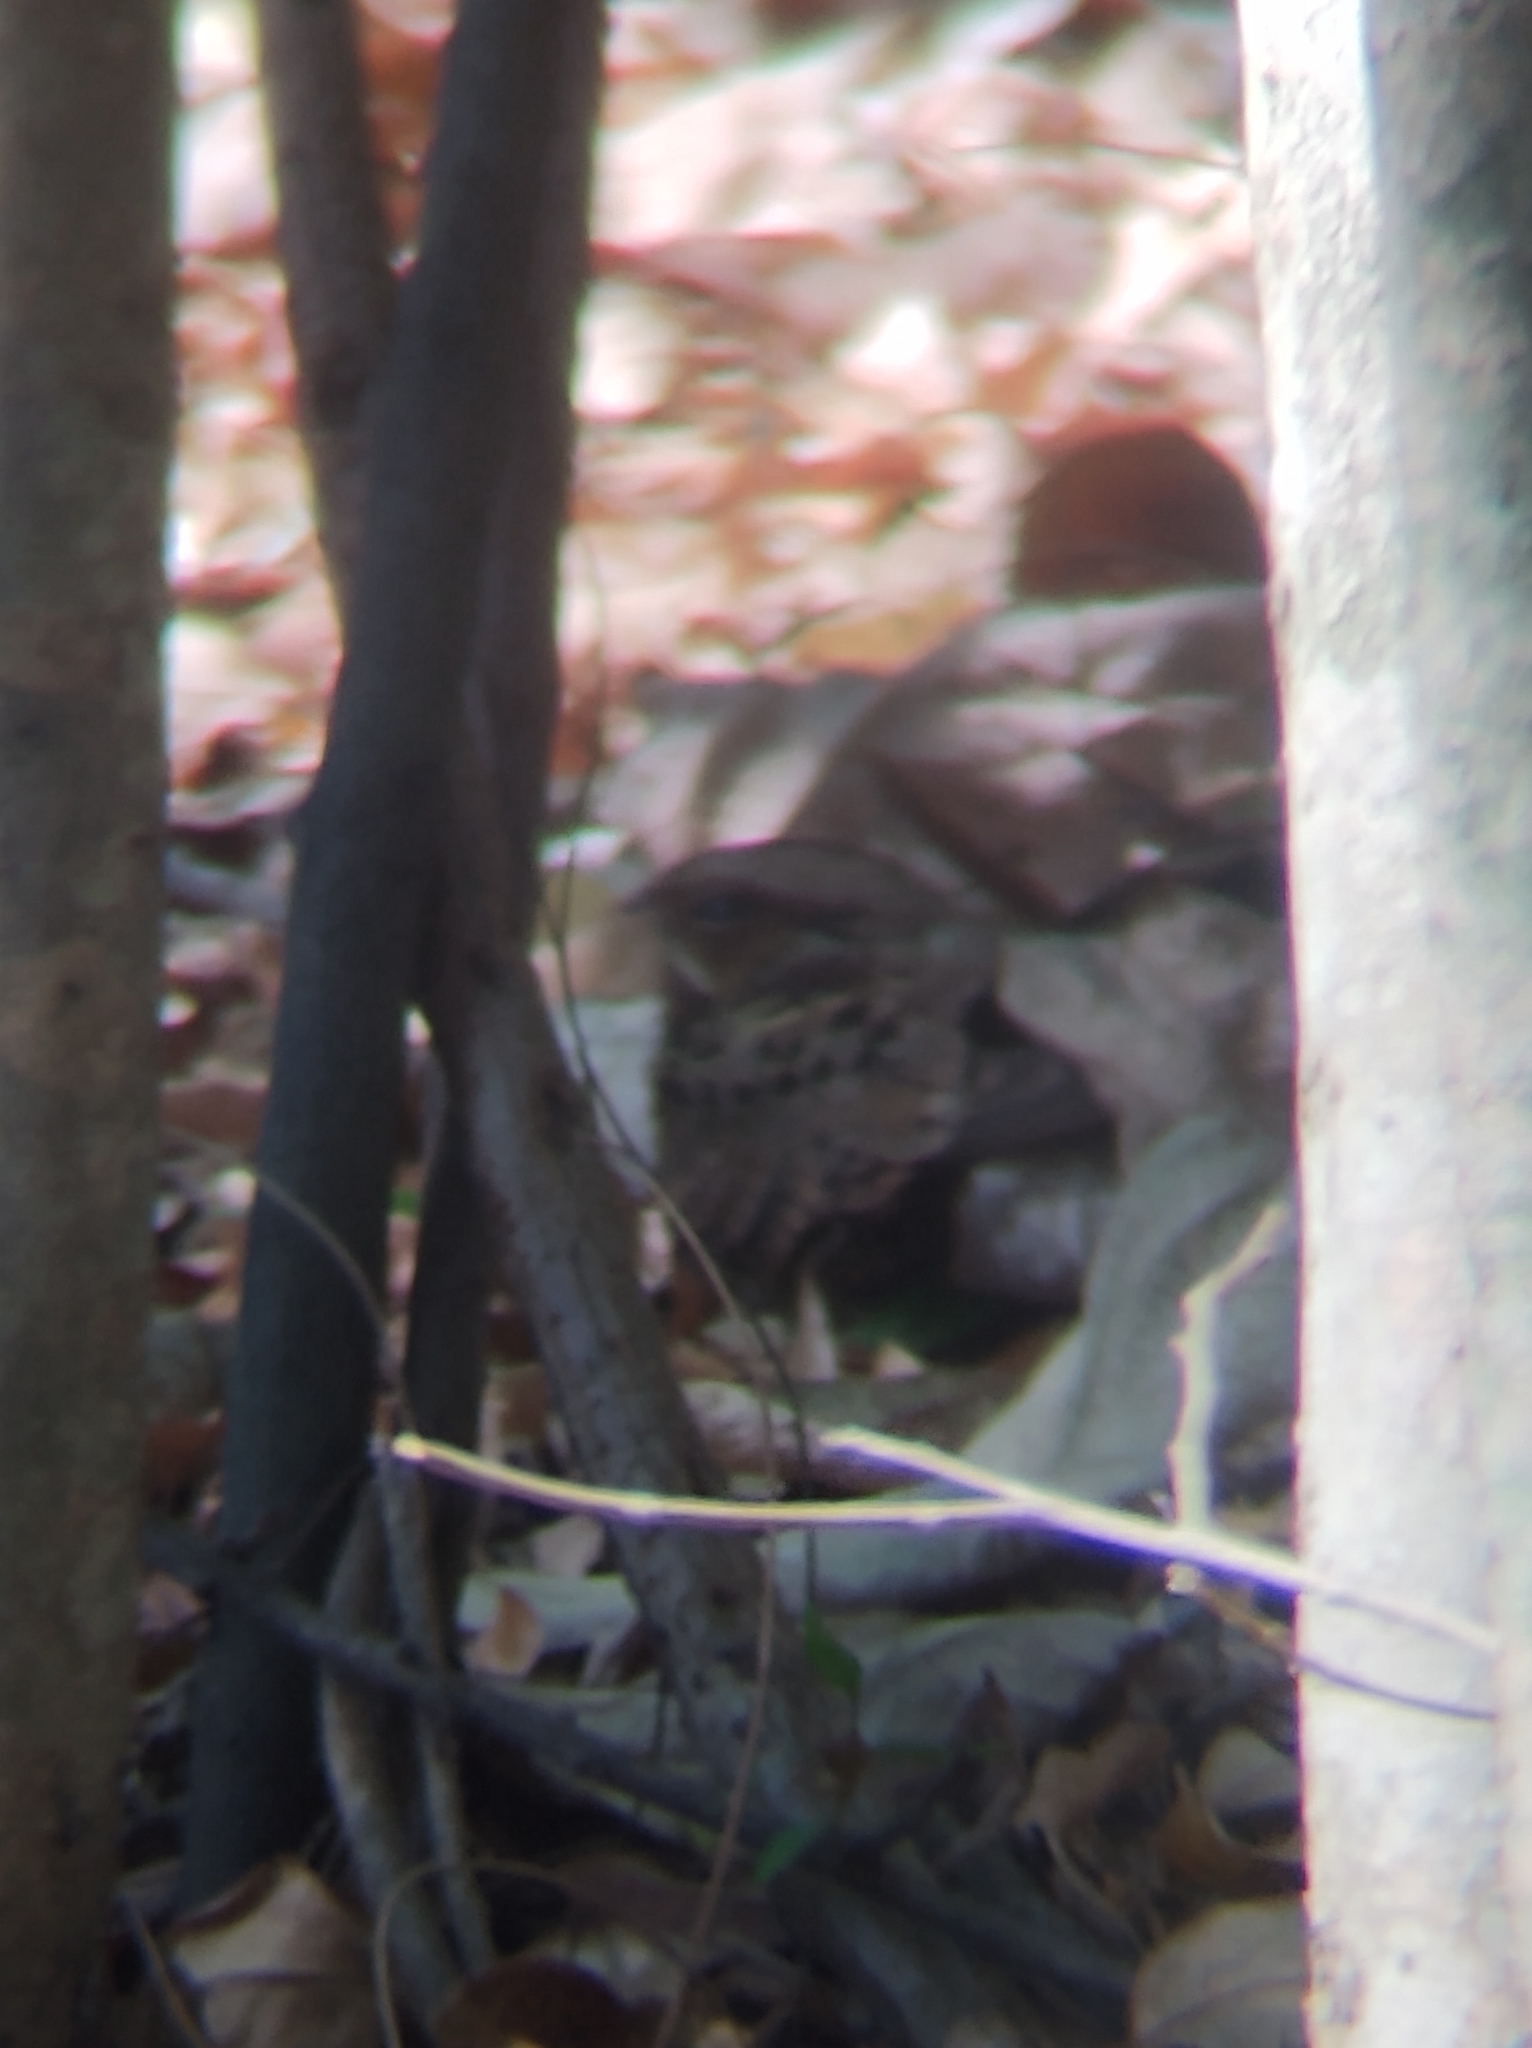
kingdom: Animalia
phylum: Chordata
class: Aves
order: Caprimulgiformes
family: Caprimulgidae
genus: Nyctidromus
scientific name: Nyctidromus albicollis
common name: Pauraque
